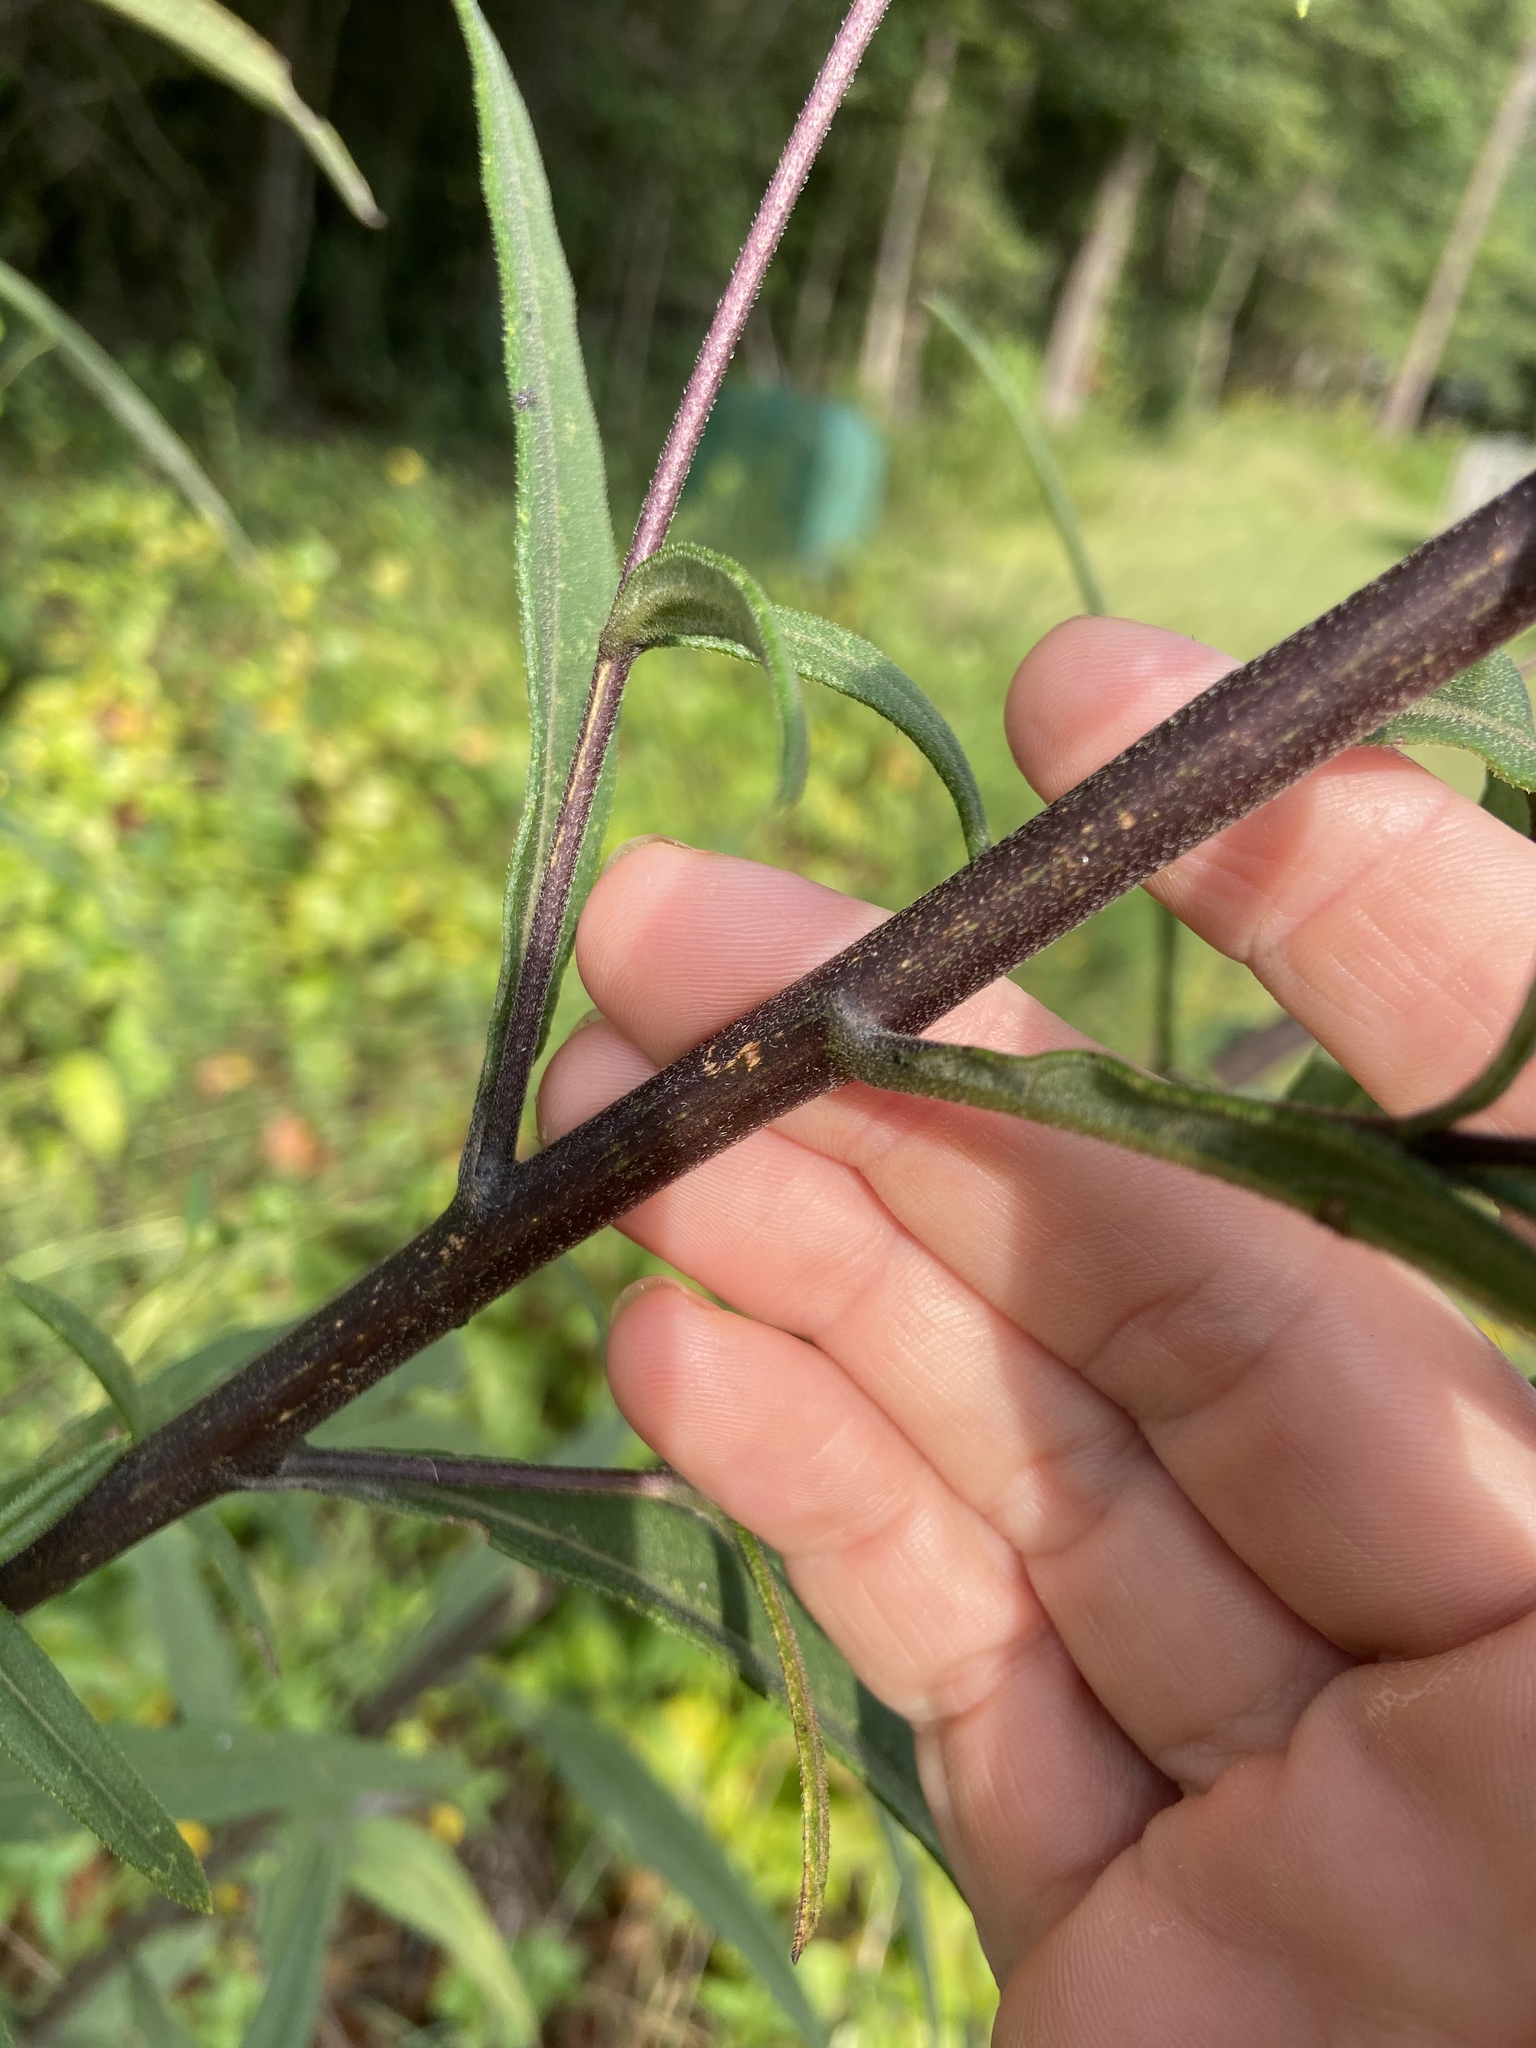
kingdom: Plantae
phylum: Tracheophyta
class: Magnoliopsida
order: Asterales
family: Asteraceae
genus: Helianthus
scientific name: Helianthus schweinitzii
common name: Schweinitz's sunflower
